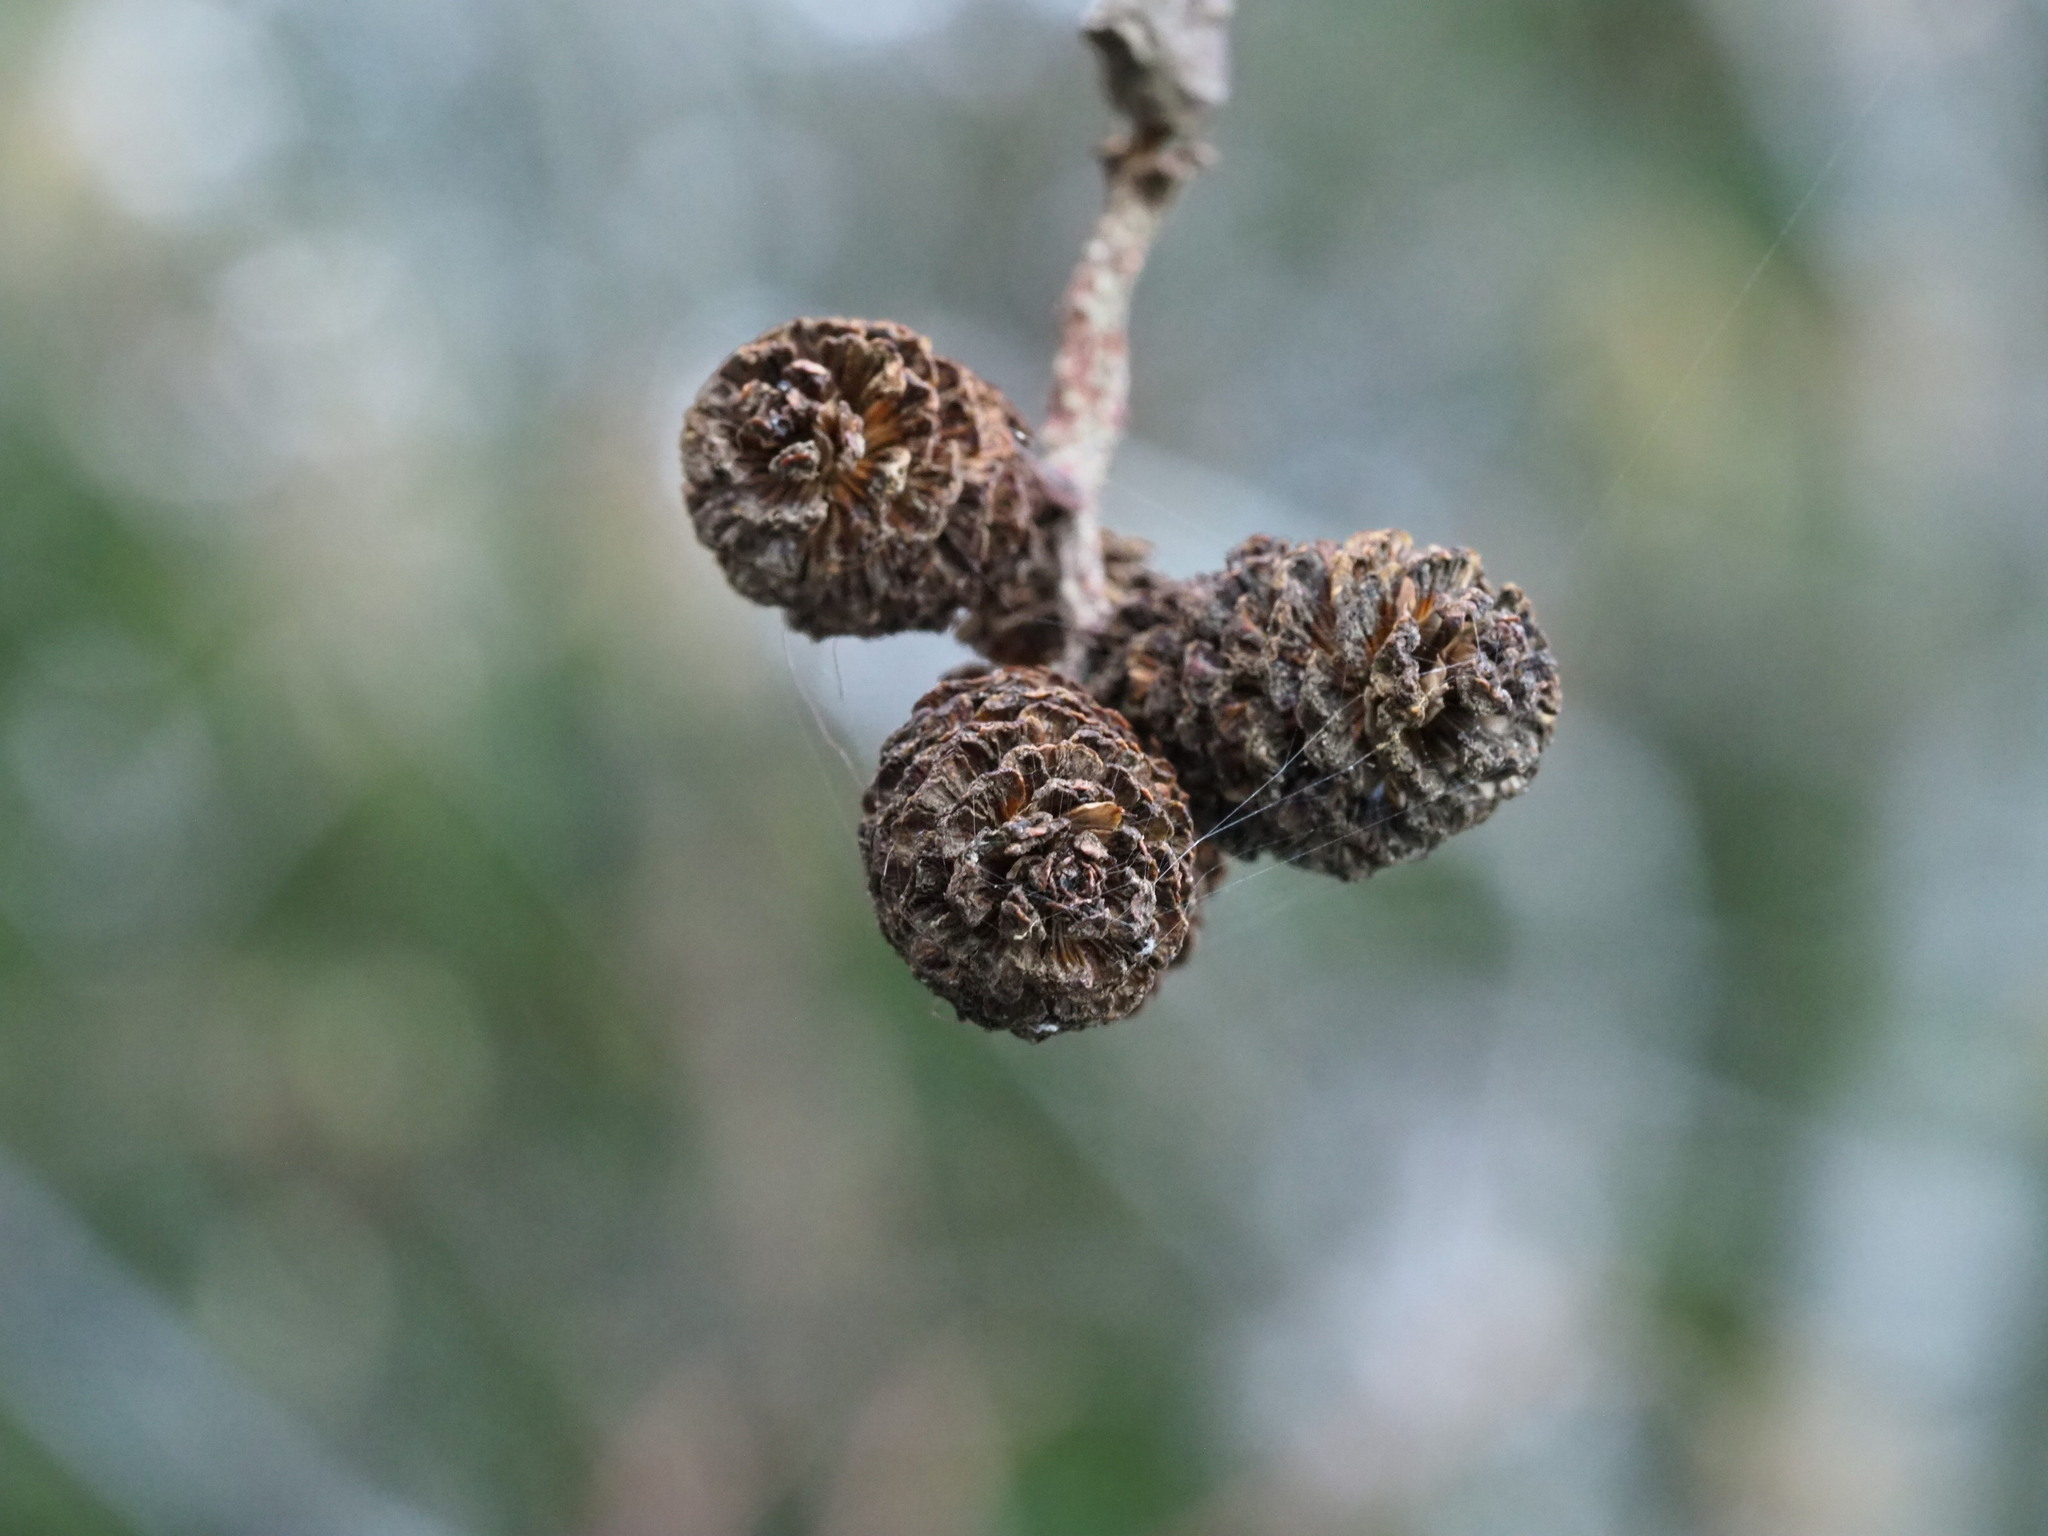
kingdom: Plantae
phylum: Tracheophyta
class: Magnoliopsida
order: Fagales
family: Betulaceae
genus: Alnus
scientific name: Alnus rubra
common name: Red alder
